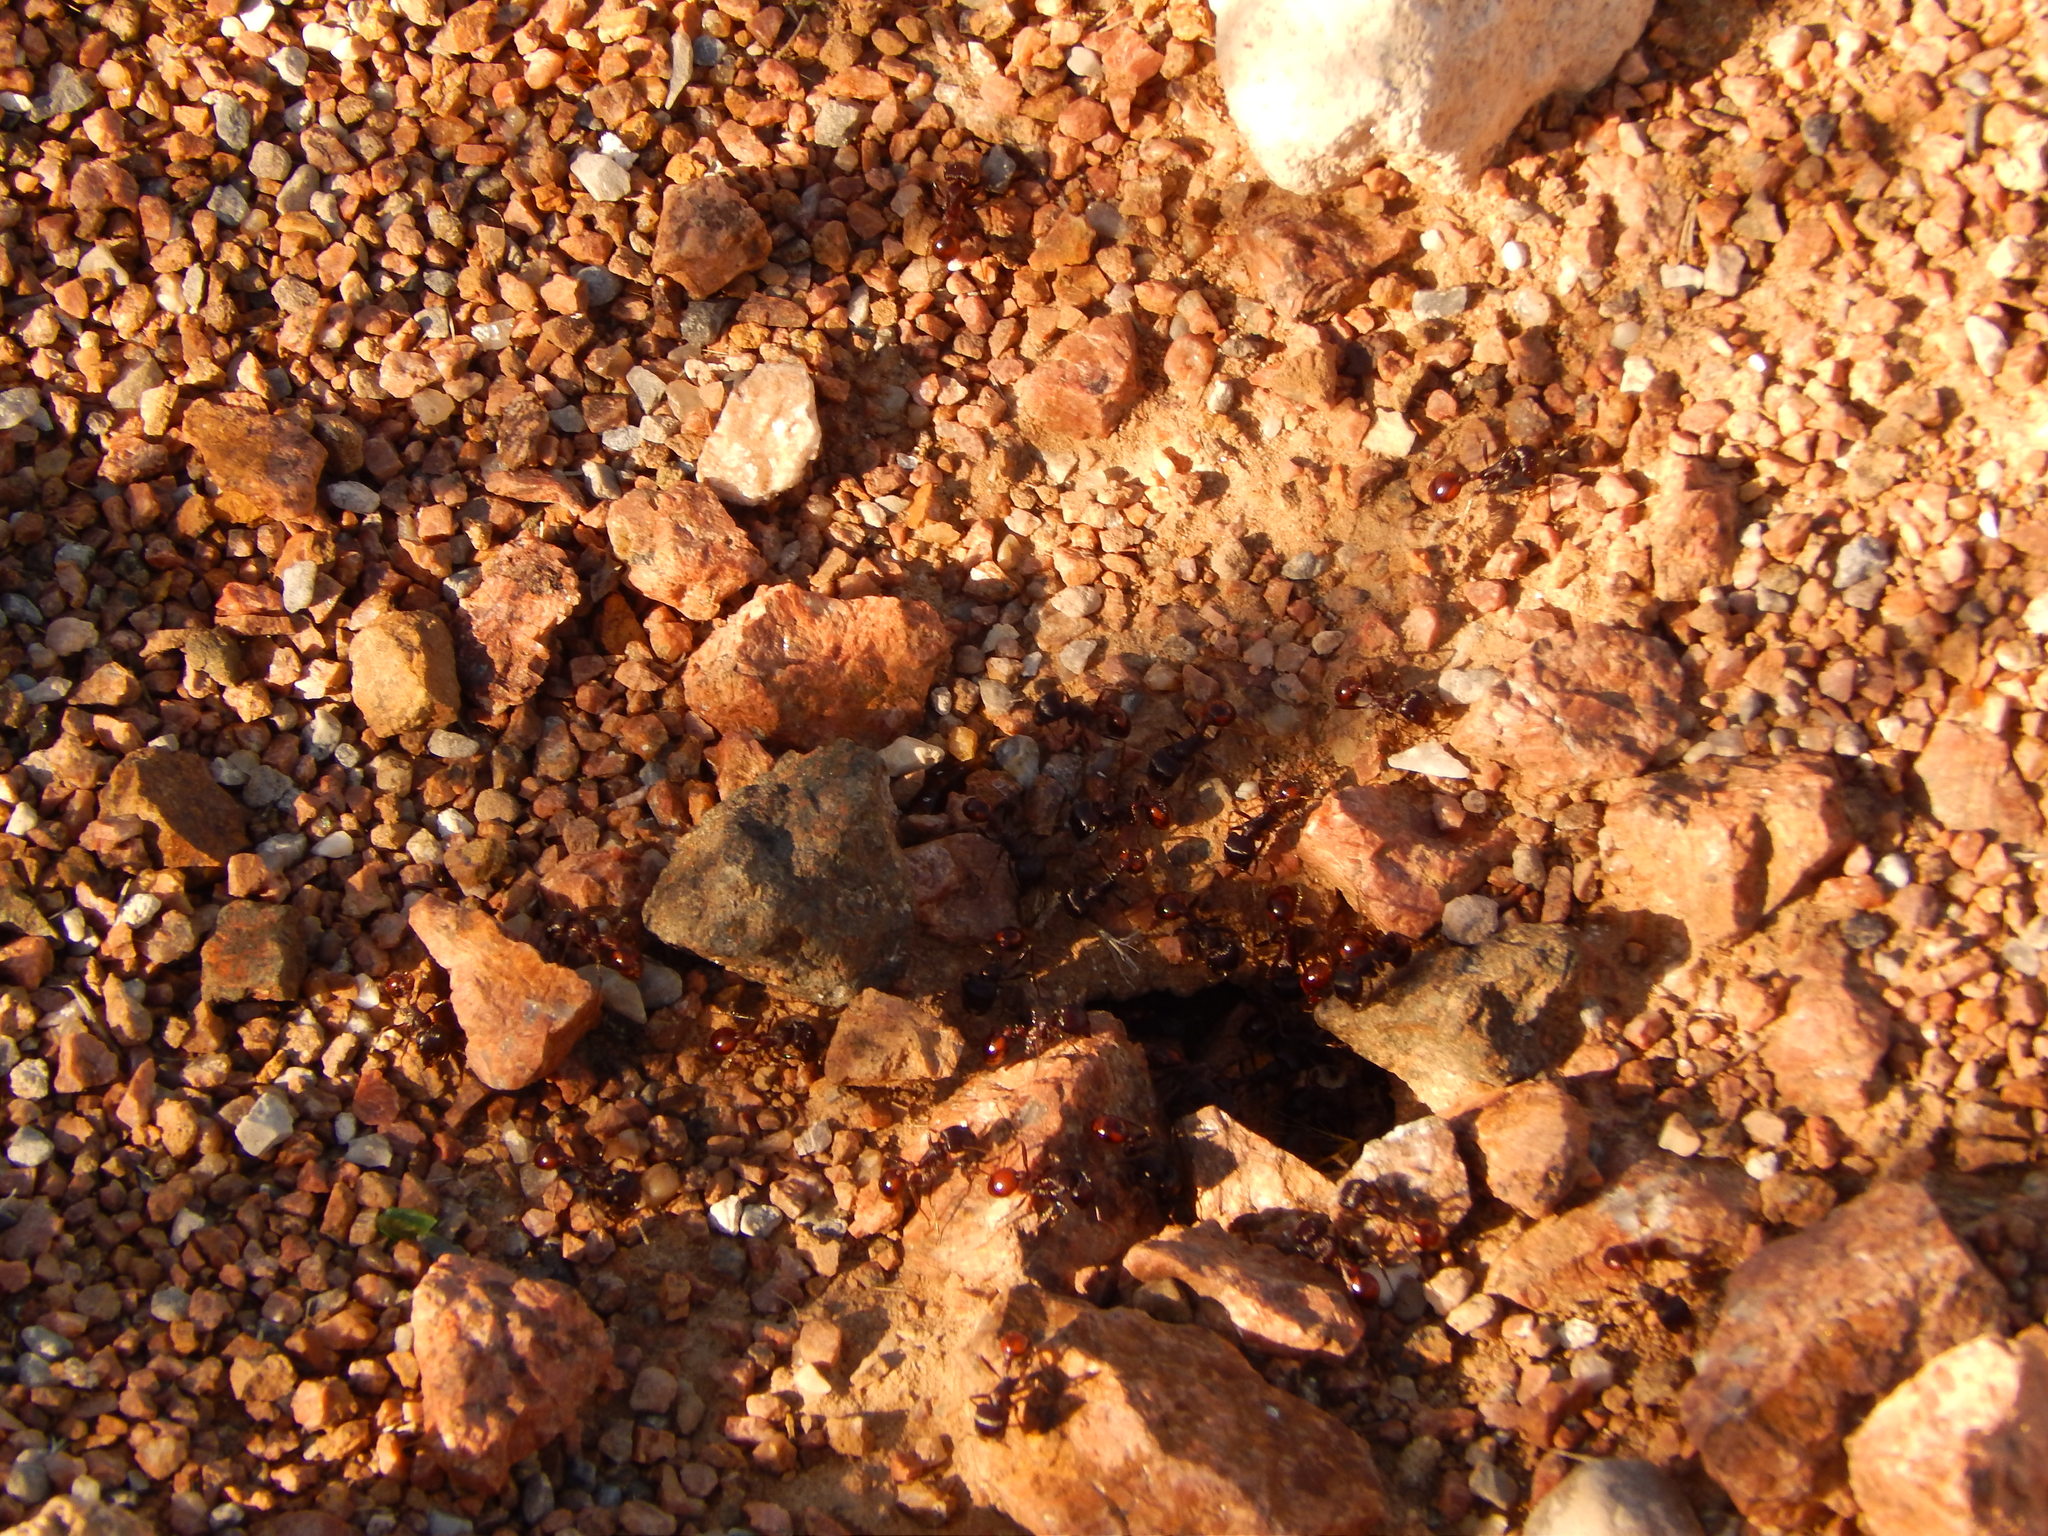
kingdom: Animalia
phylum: Arthropoda
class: Insecta
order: Hymenoptera
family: Formicidae
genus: Pogonomyrmex
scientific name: Pogonomyrmex rugosus
